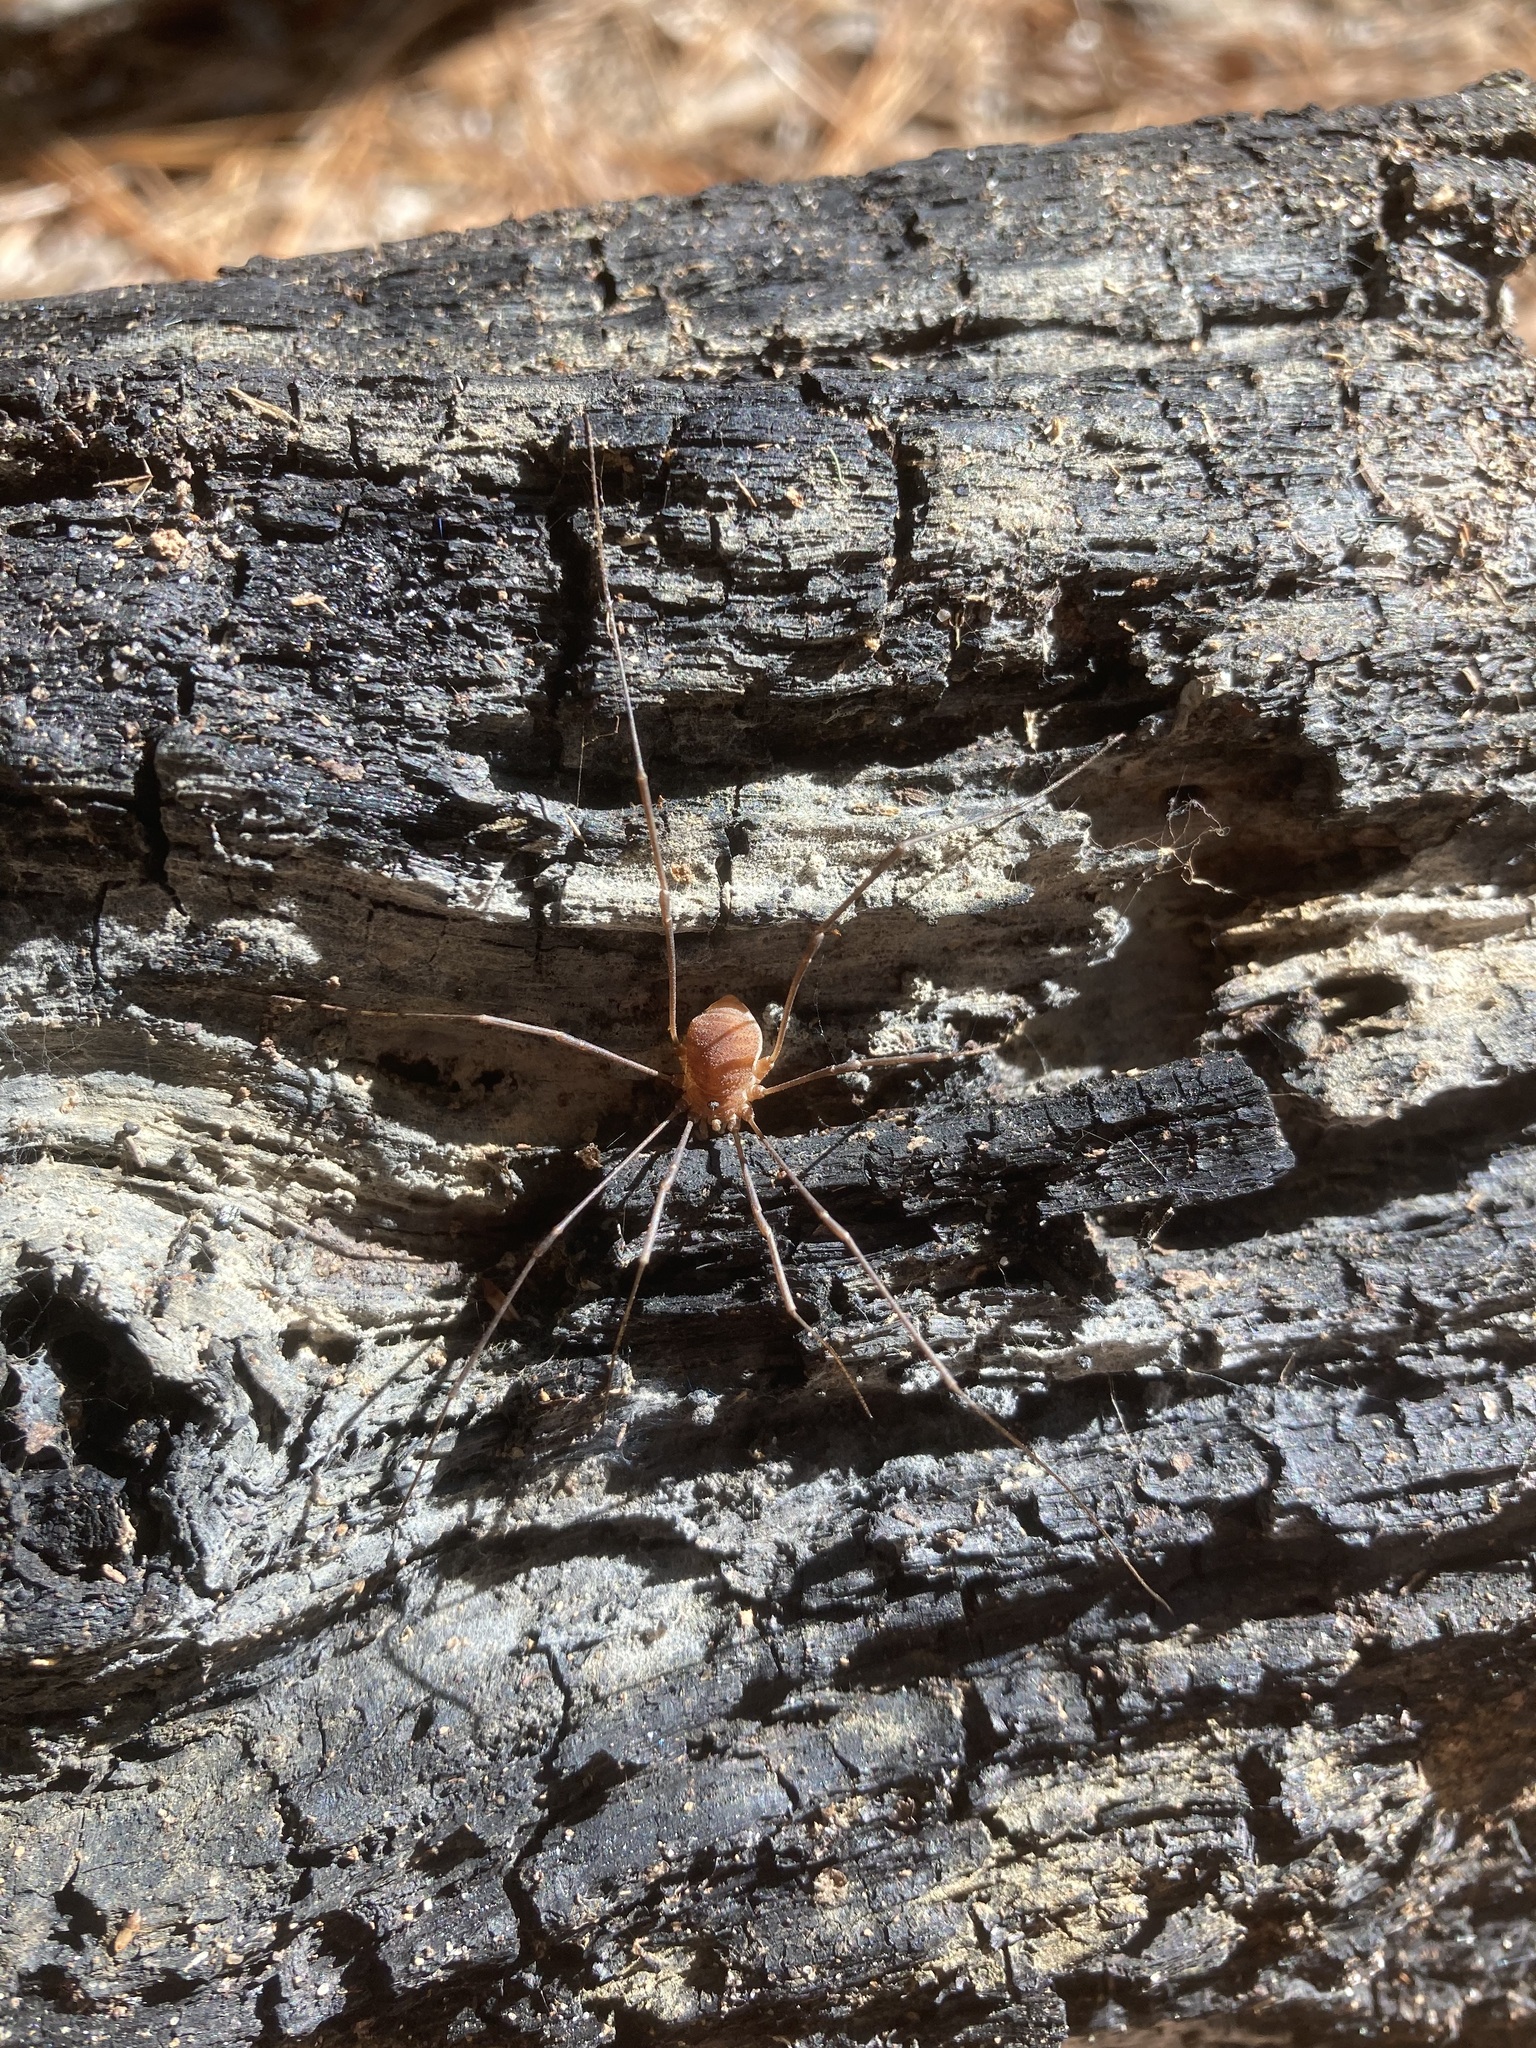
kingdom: Animalia
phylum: Arthropoda
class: Arachnida
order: Opiliones
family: Sclerosomatidae
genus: Hadrobunus
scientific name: Hadrobunus grandis
